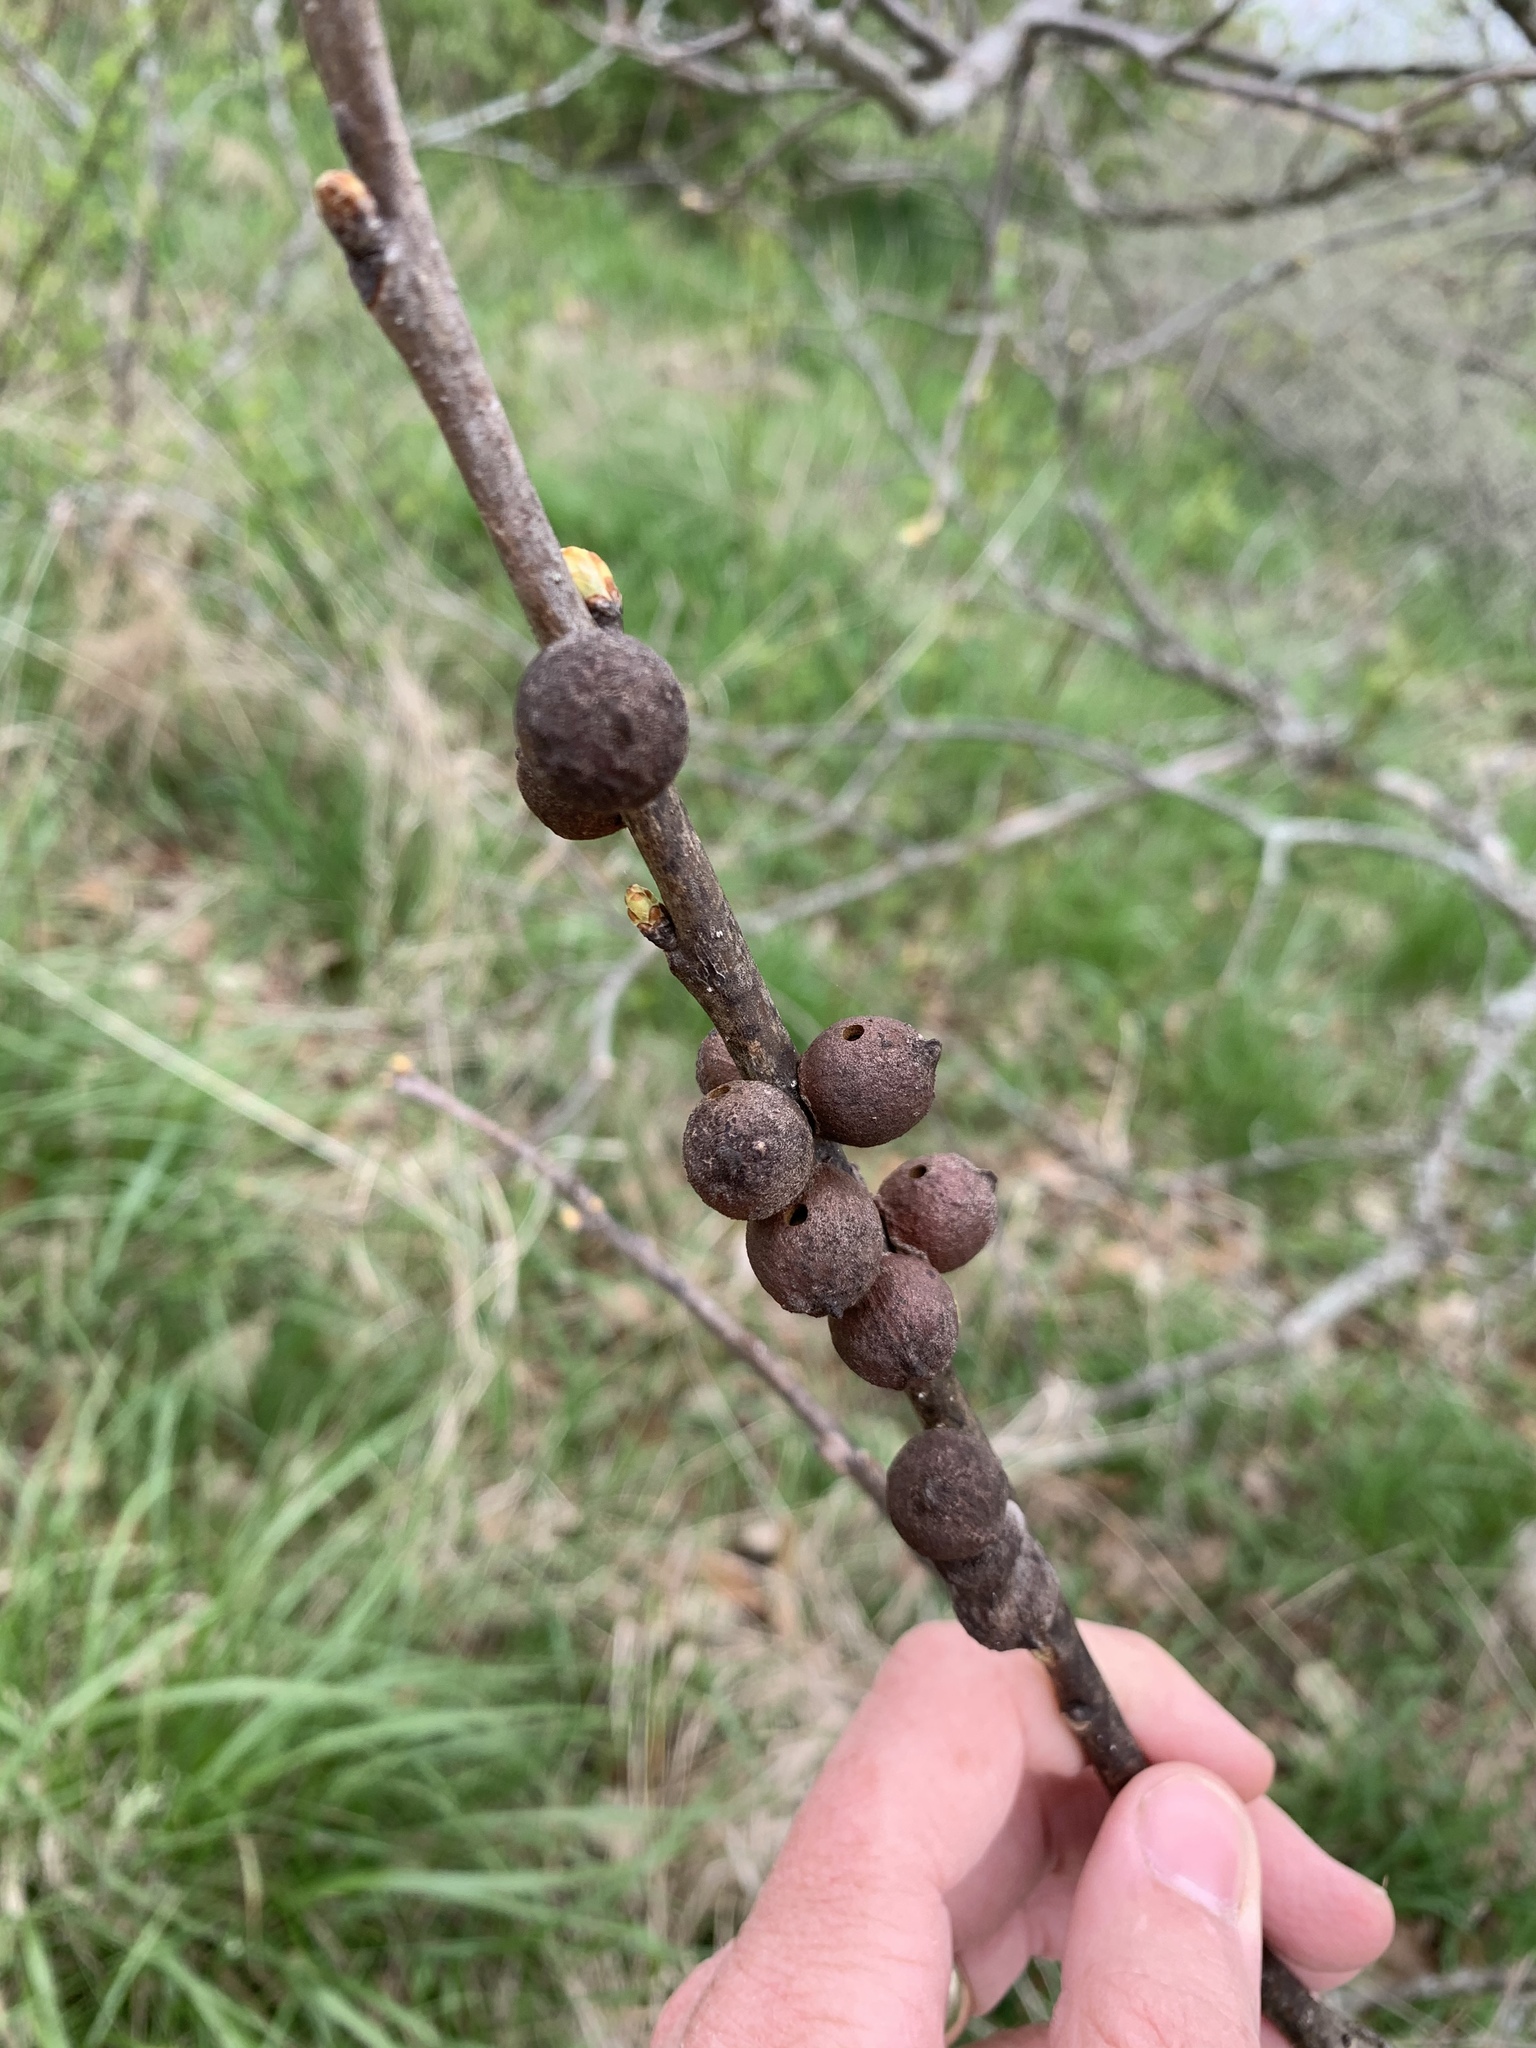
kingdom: Animalia
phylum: Arthropoda
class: Insecta
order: Hymenoptera
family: Cynipidae
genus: Disholcaspis
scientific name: Disholcaspis
